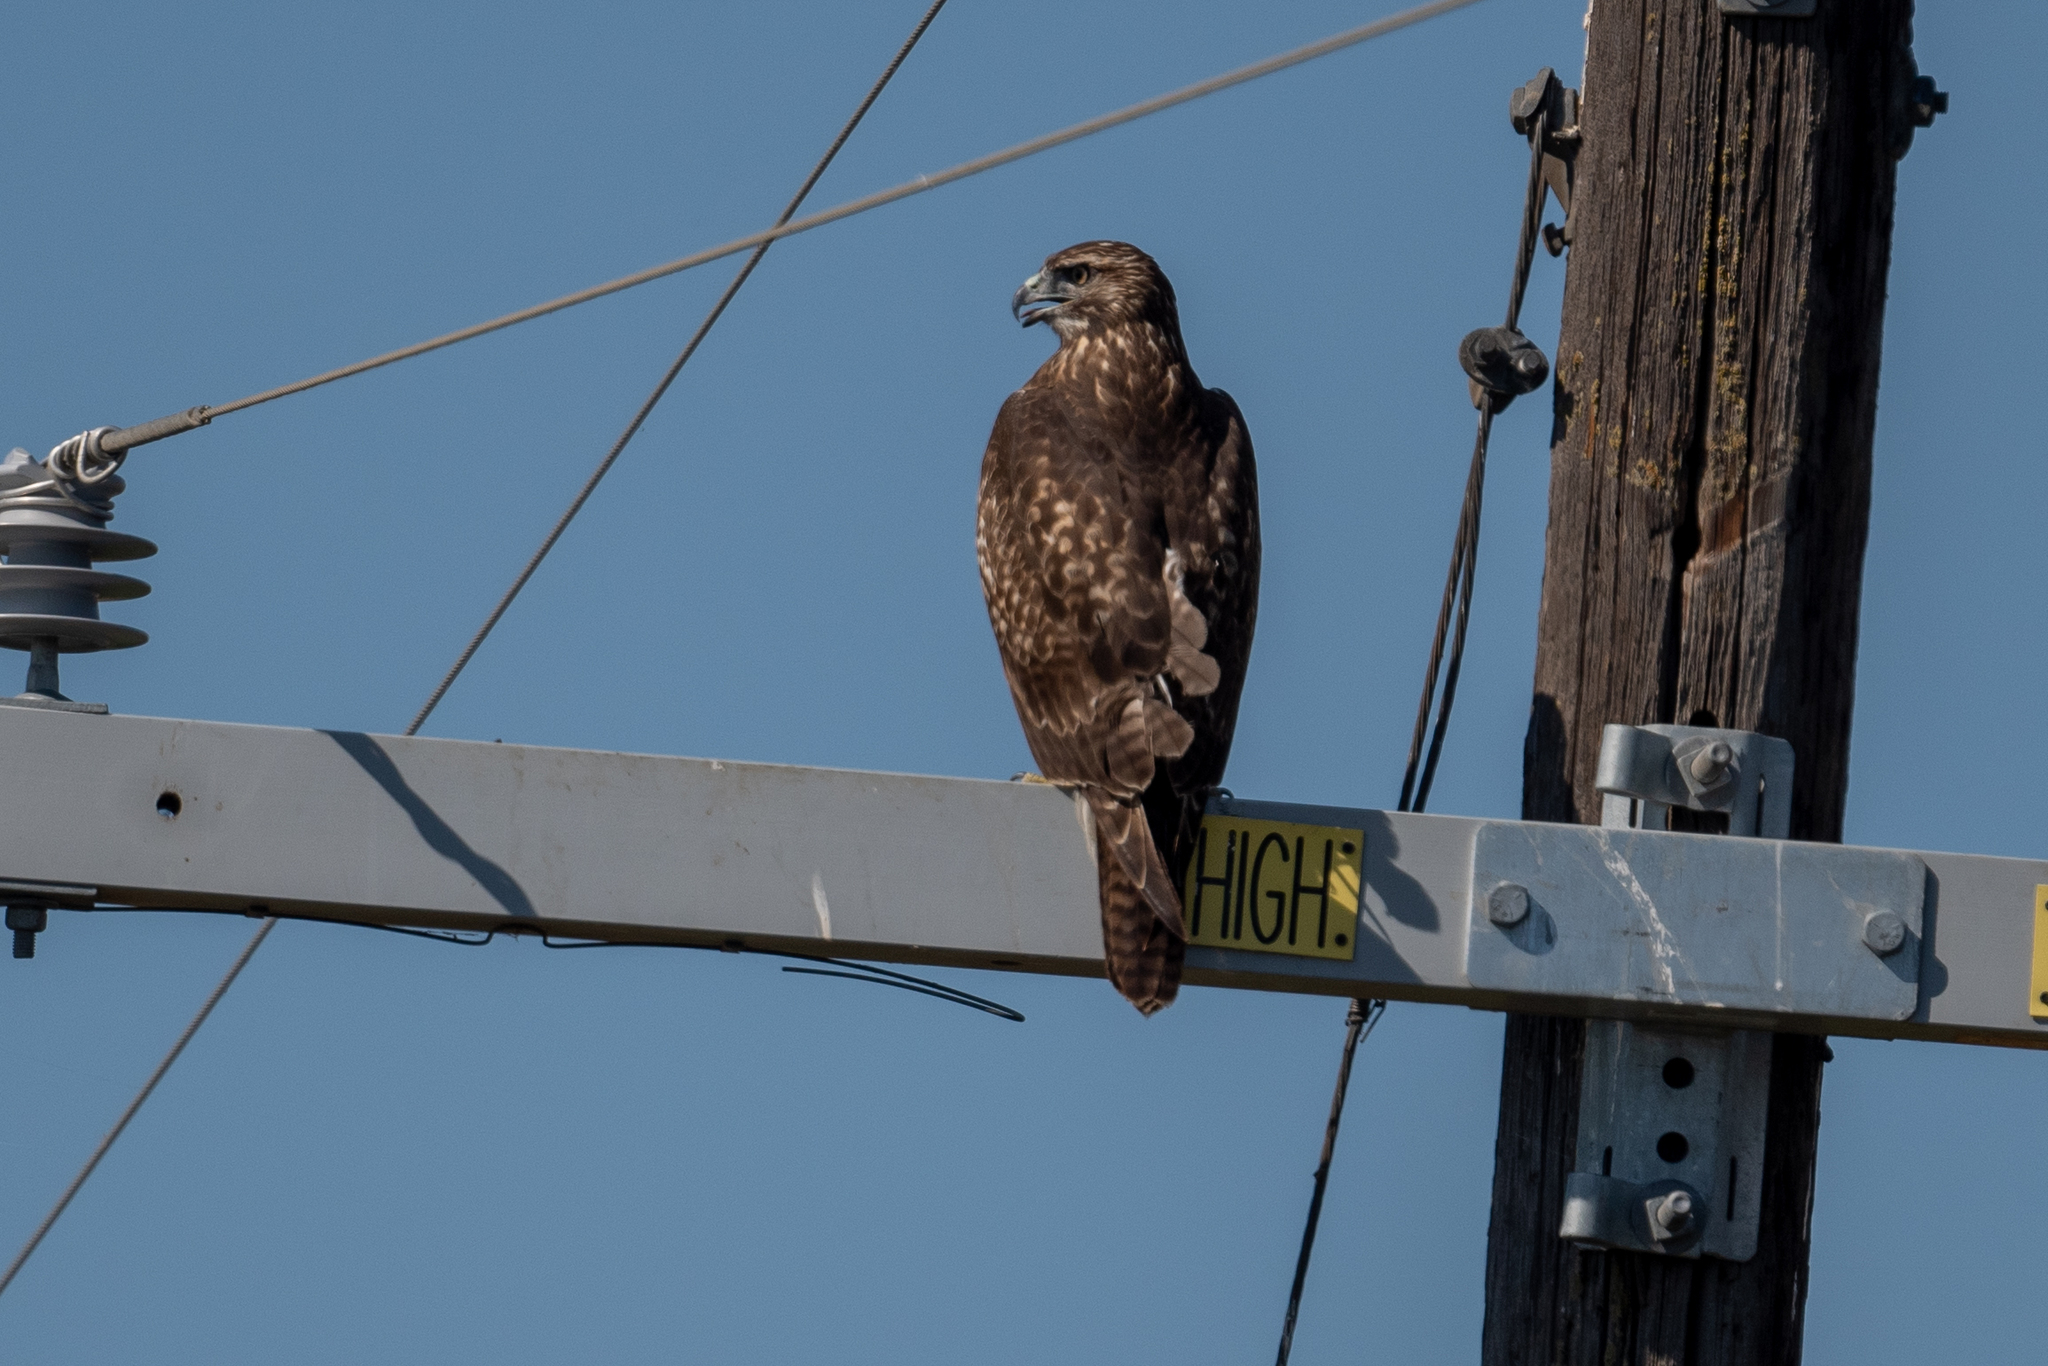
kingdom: Animalia
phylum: Chordata
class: Aves
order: Accipitriformes
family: Accipitridae
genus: Buteo
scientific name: Buteo jamaicensis
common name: Red-tailed hawk
